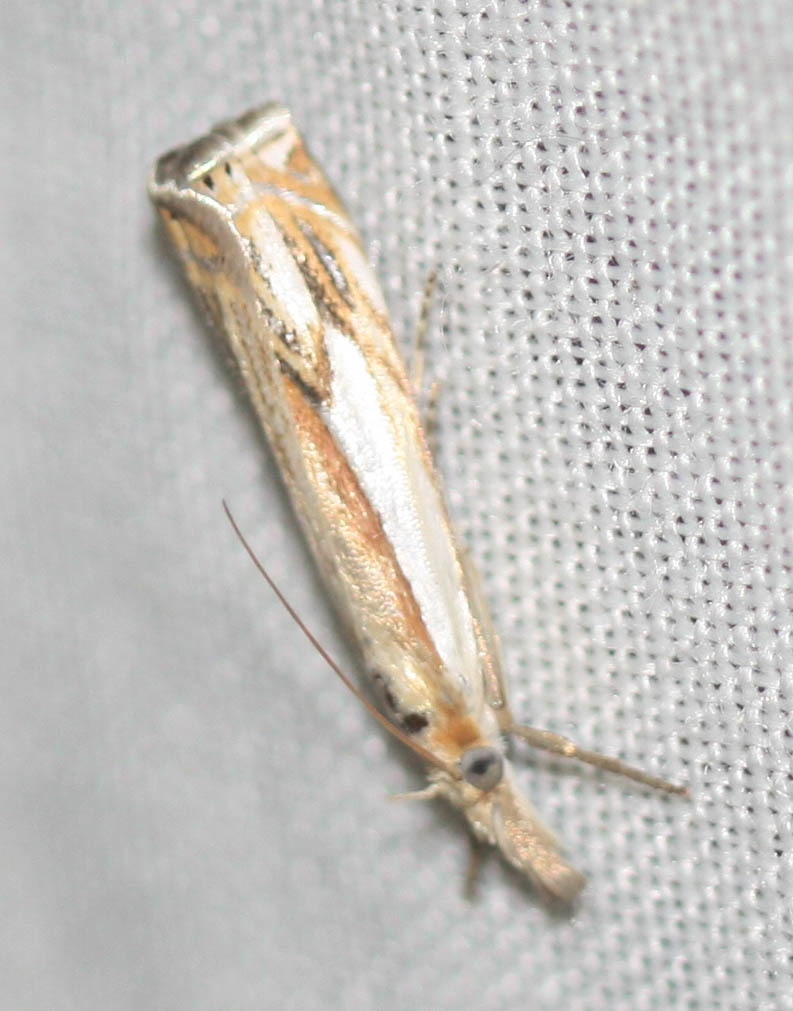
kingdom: Animalia
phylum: Arthropoda
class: Insecta
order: Lepidoptera
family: Crambidae
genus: Crambus
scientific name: Crambus agitatellus
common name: Double-banded grass-veneer
